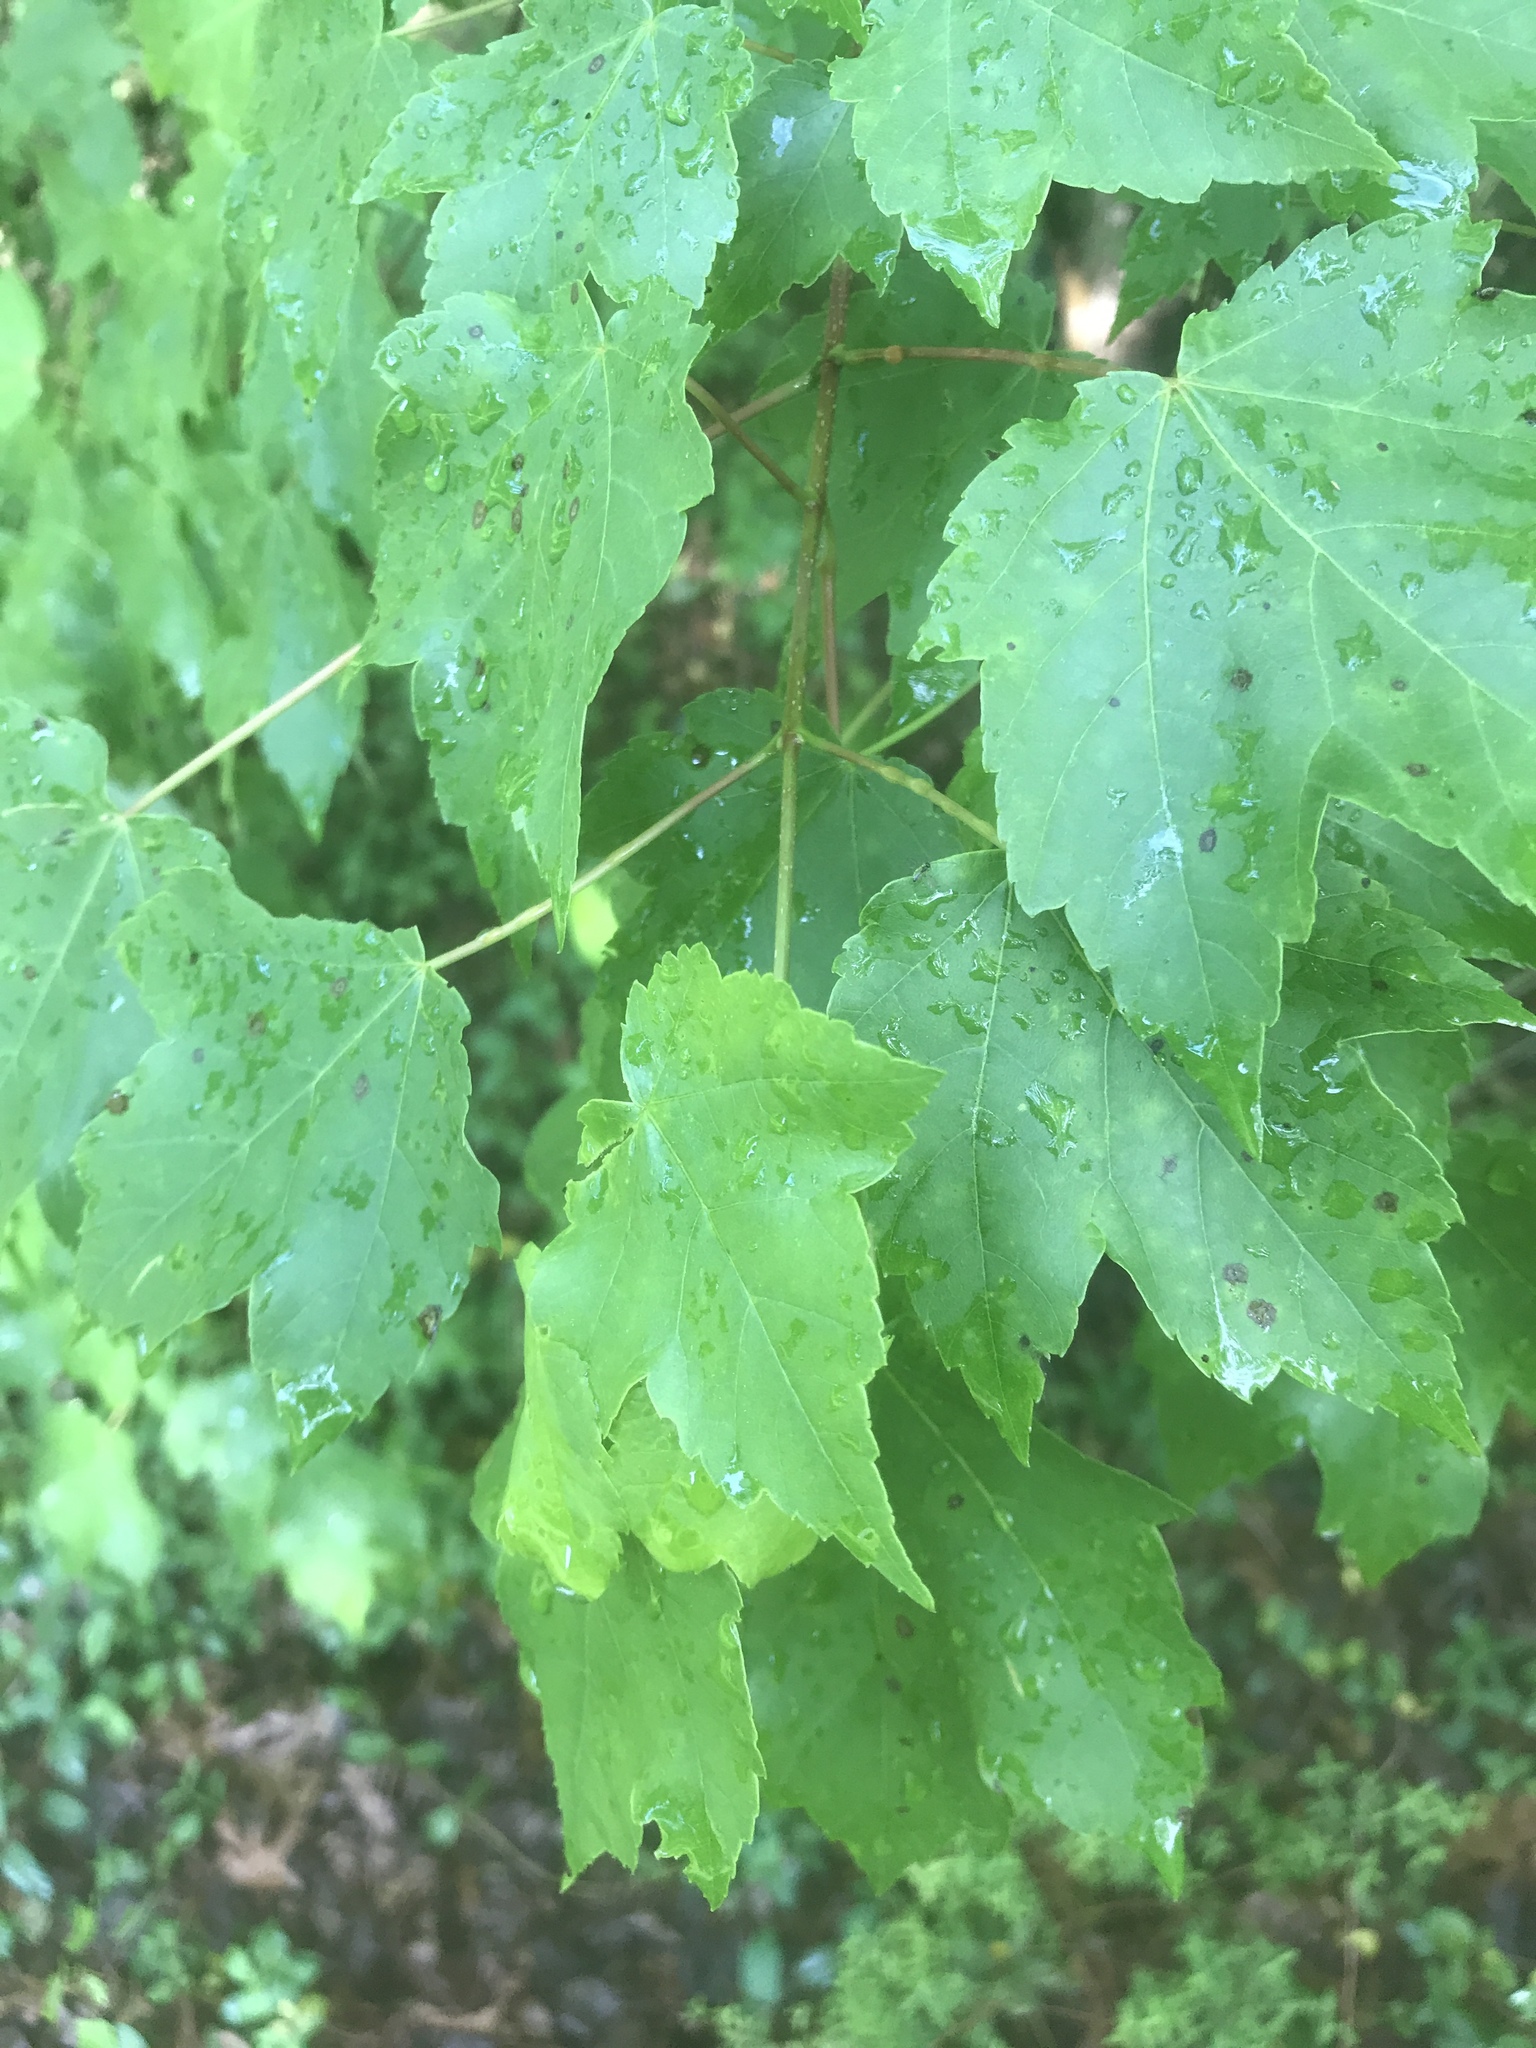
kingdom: Plantae
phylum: Tracheophyta
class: Magnoliopsida
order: Sapindales
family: Sapindaceae
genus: Acer
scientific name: Acer rubrum
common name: Red maple
